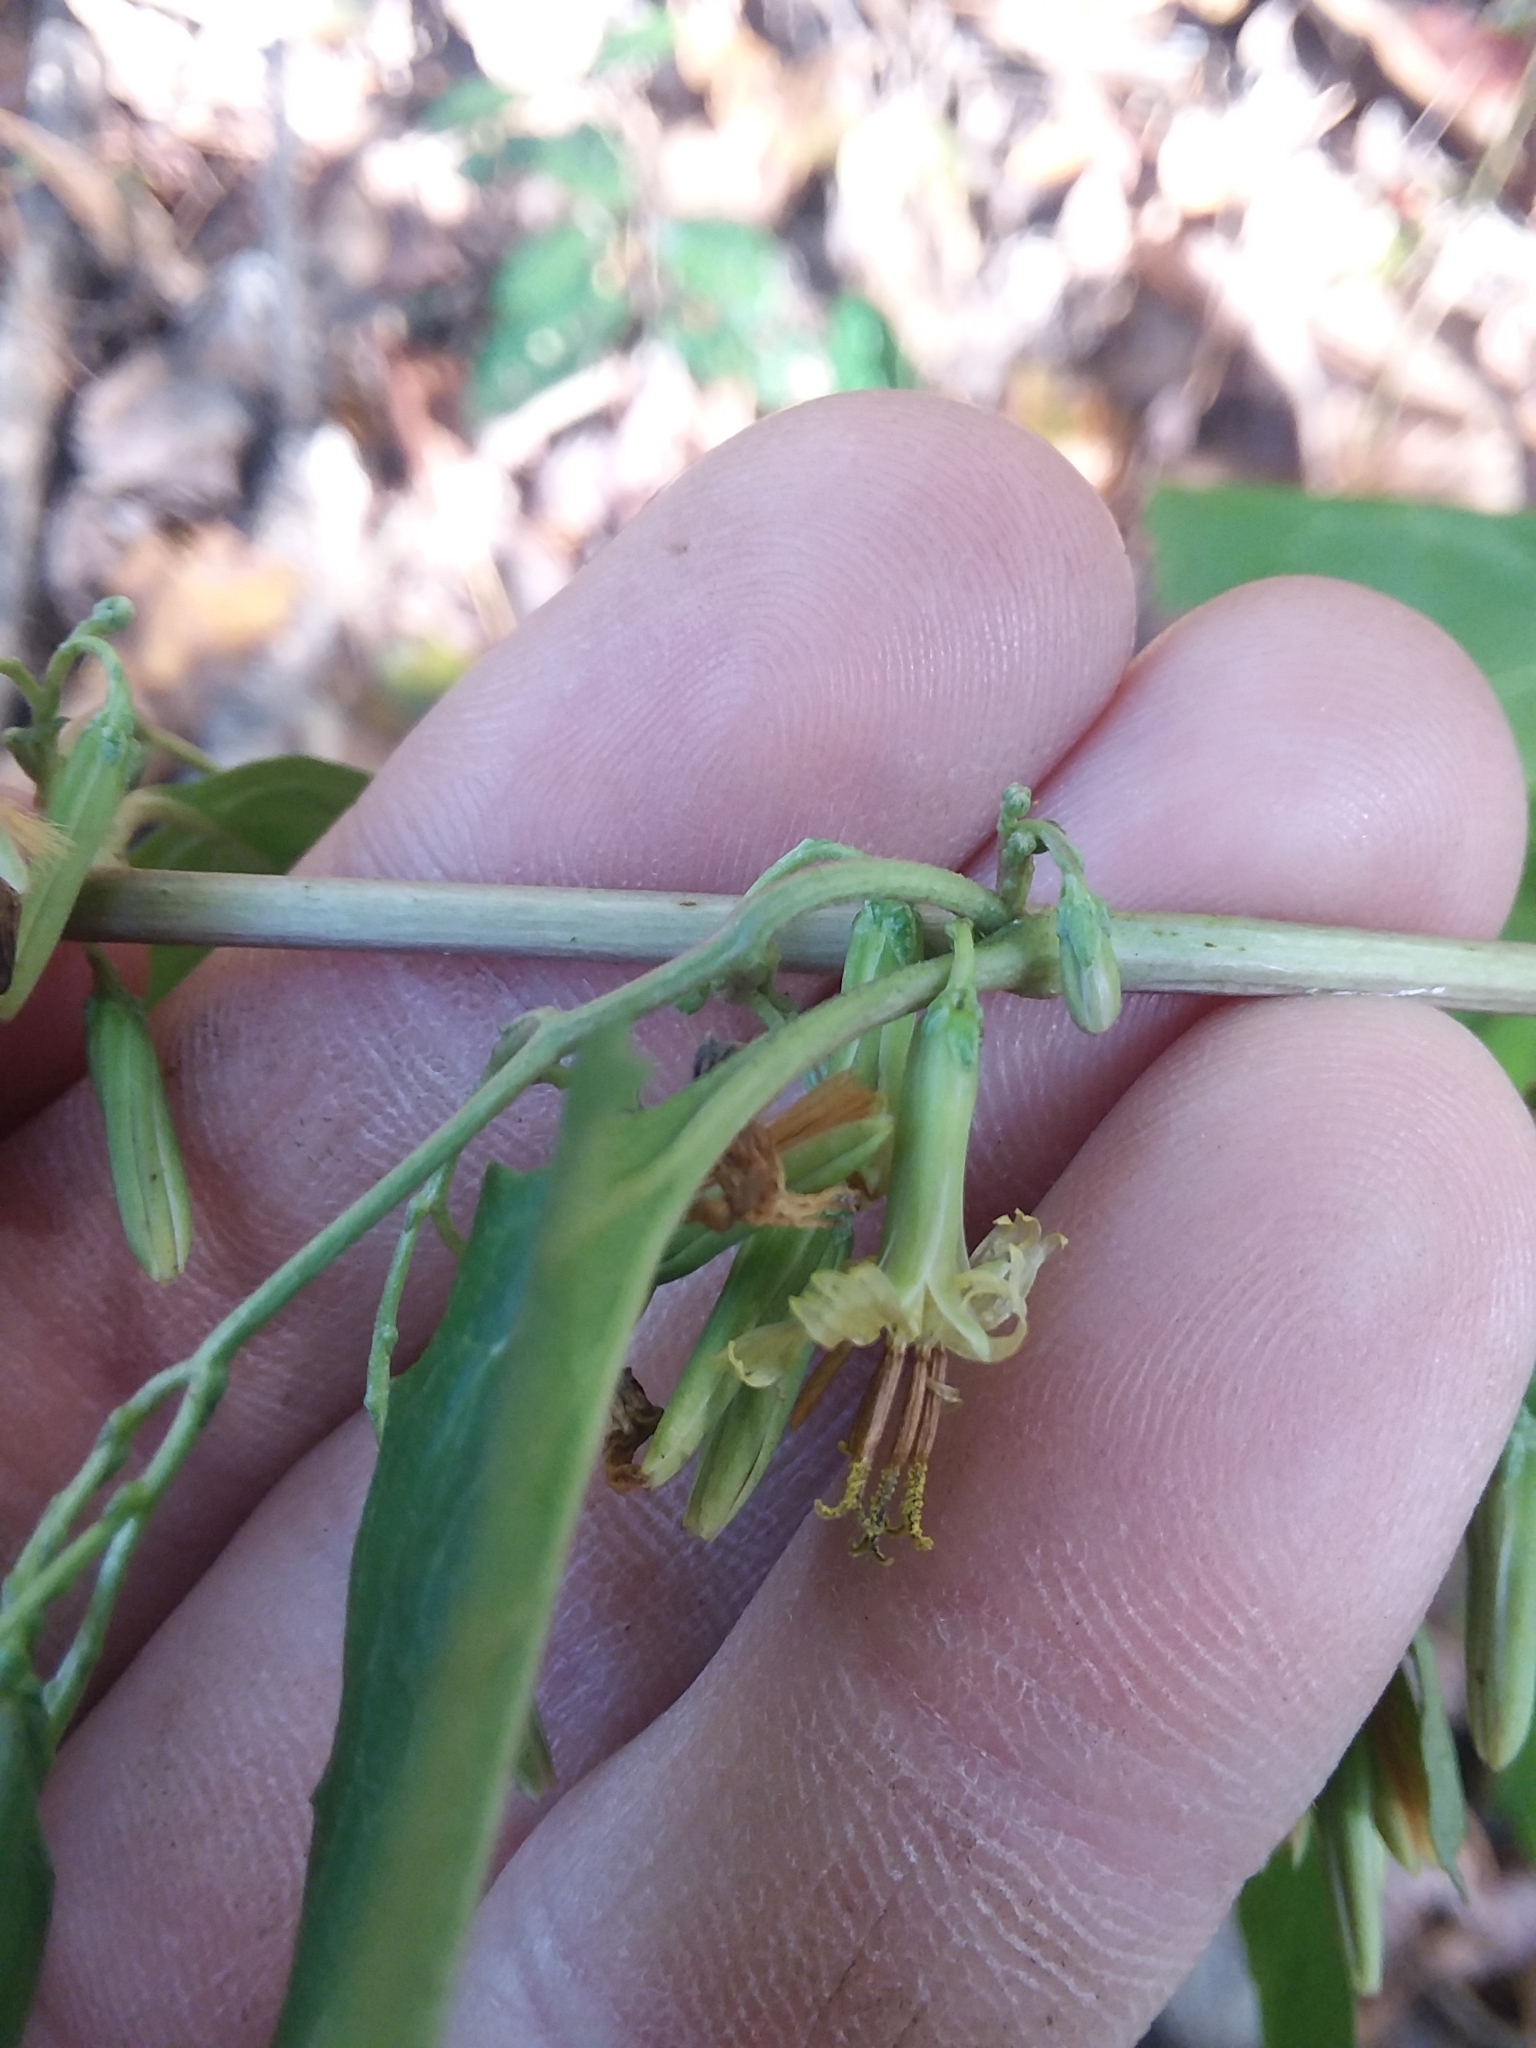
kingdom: Plantae
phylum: Tracheophyta
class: Magnoliopsida
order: Asterales
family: Asteraceae
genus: Nabalus
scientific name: Nabalus altissima
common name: Tall rattlesnakeroot
